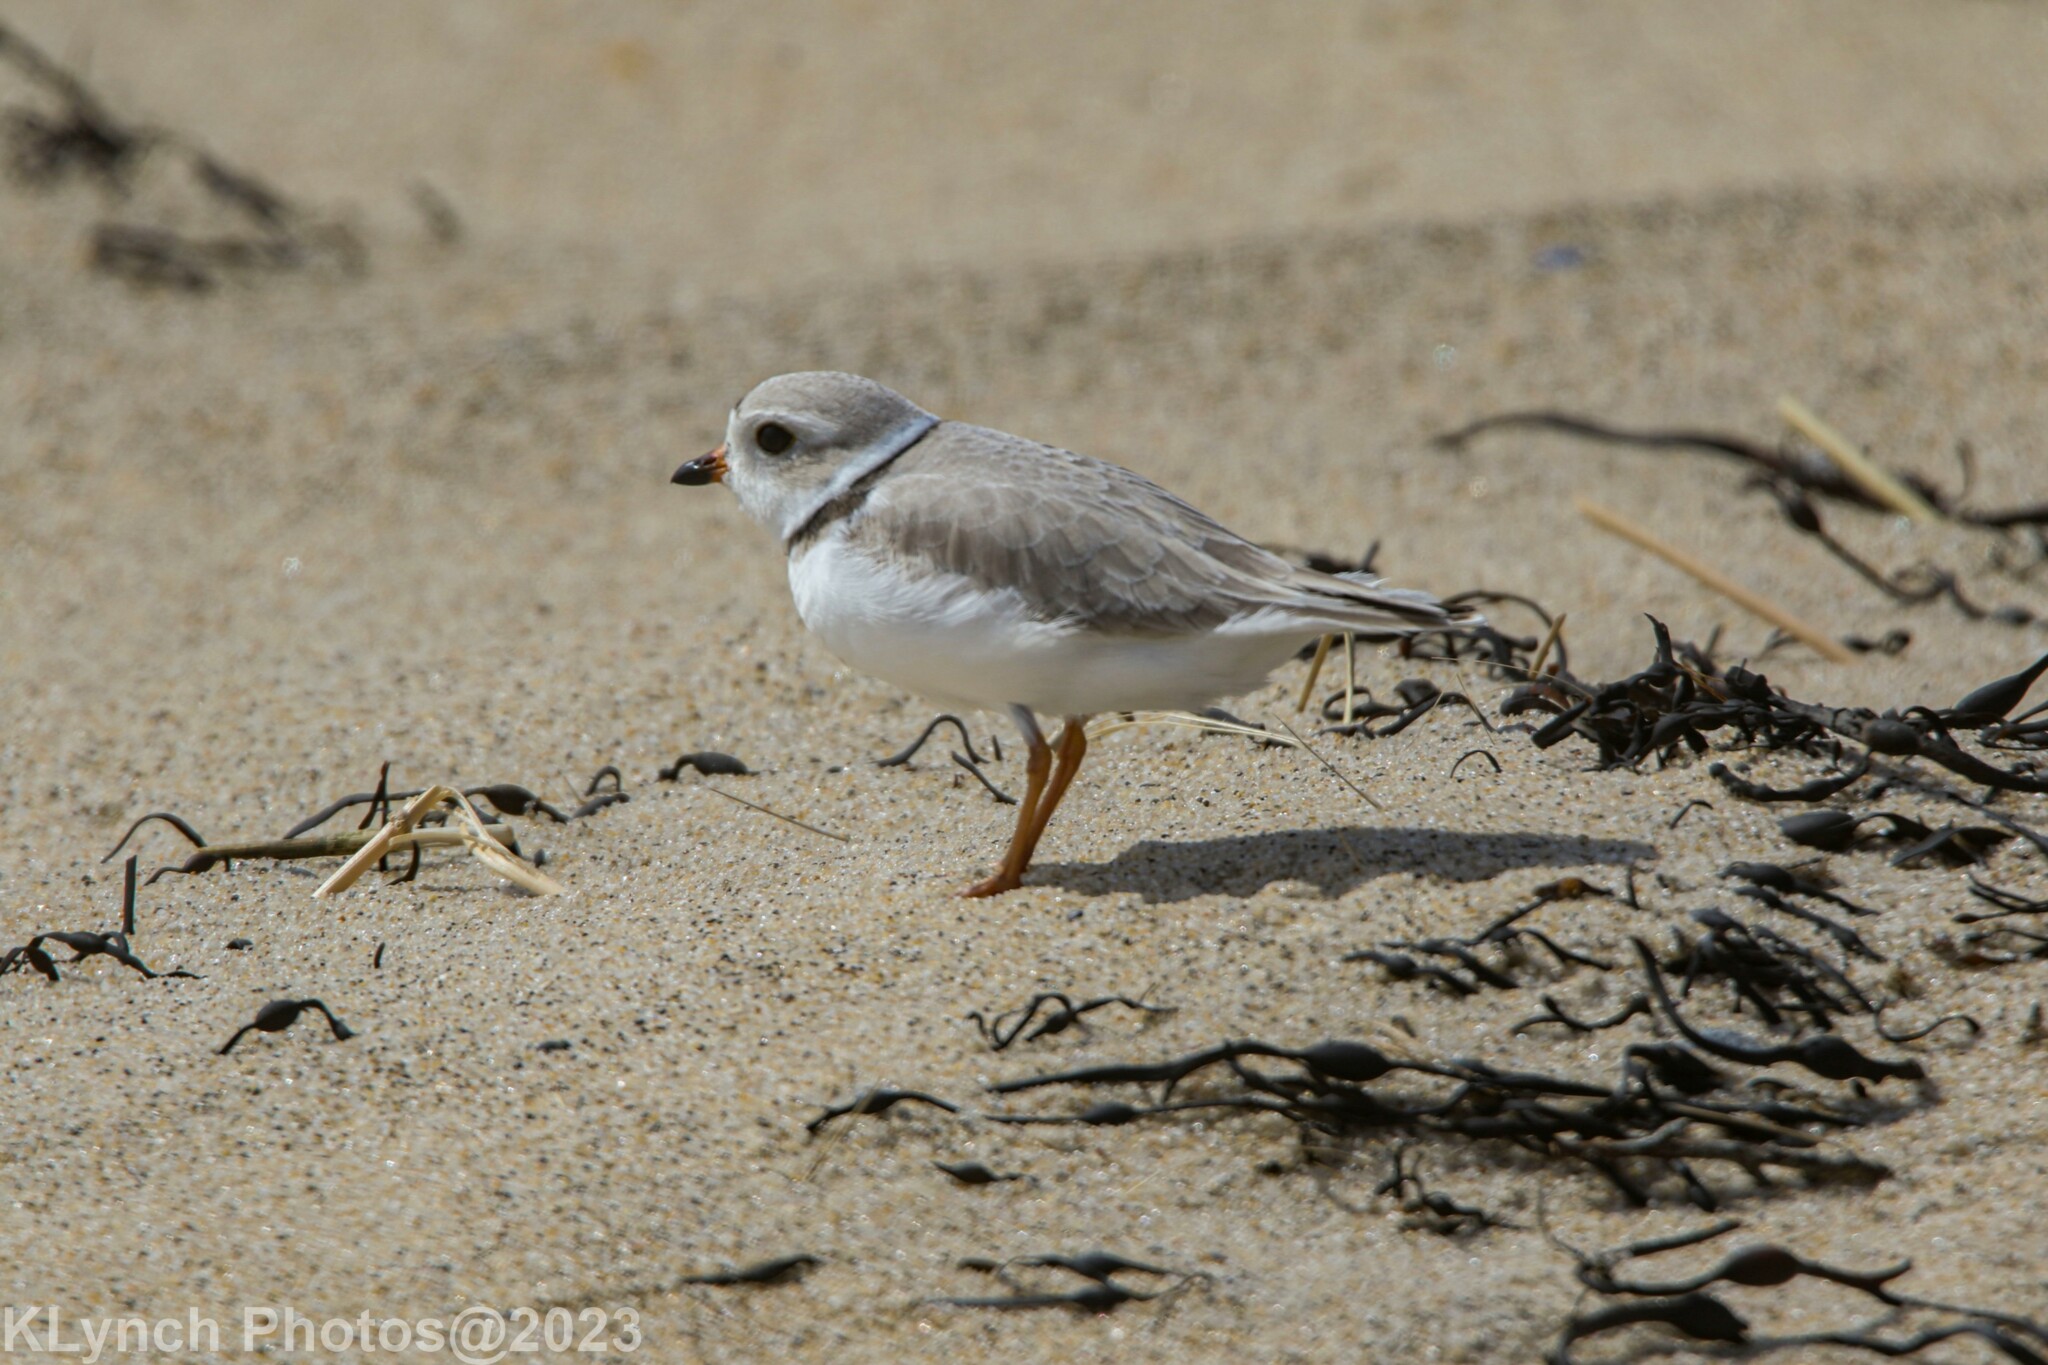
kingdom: Animalia
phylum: Chordata
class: Aves
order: Charadriiformes
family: Charadriidae
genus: Charadrius
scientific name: Charadrius melodus
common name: Piping plover
